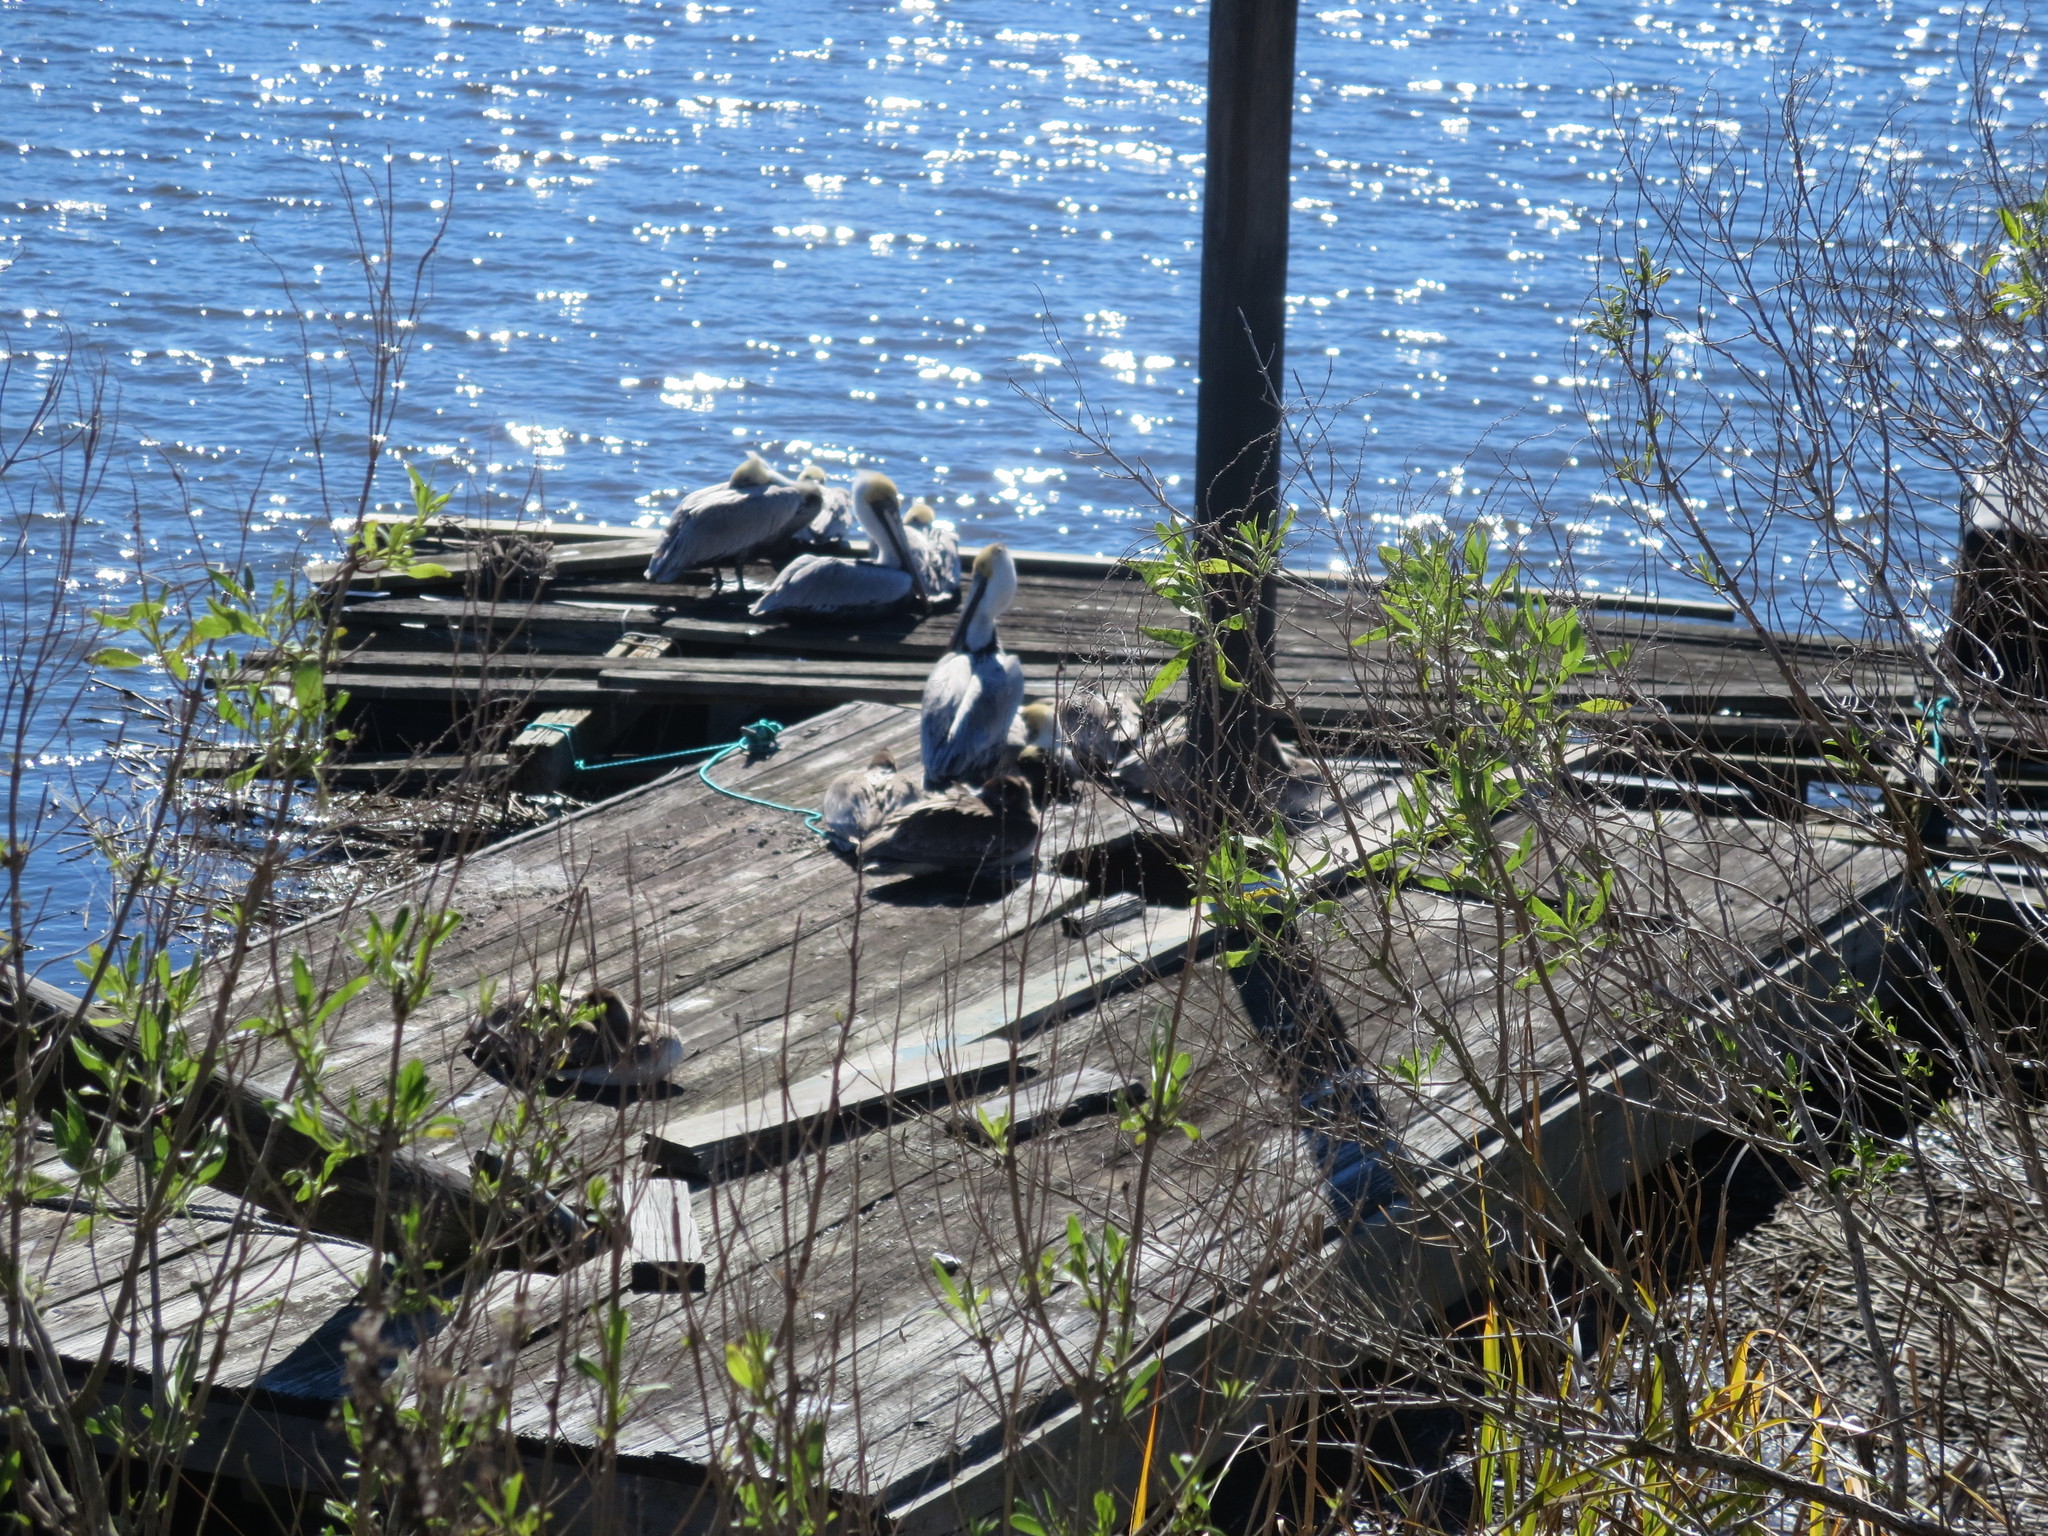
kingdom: Animalia
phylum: Chordata
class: Aves
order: Pelecaniformes
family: Pelecanidae
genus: Pelecanus
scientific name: Pelecanus occidentalis
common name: Brown pelican
